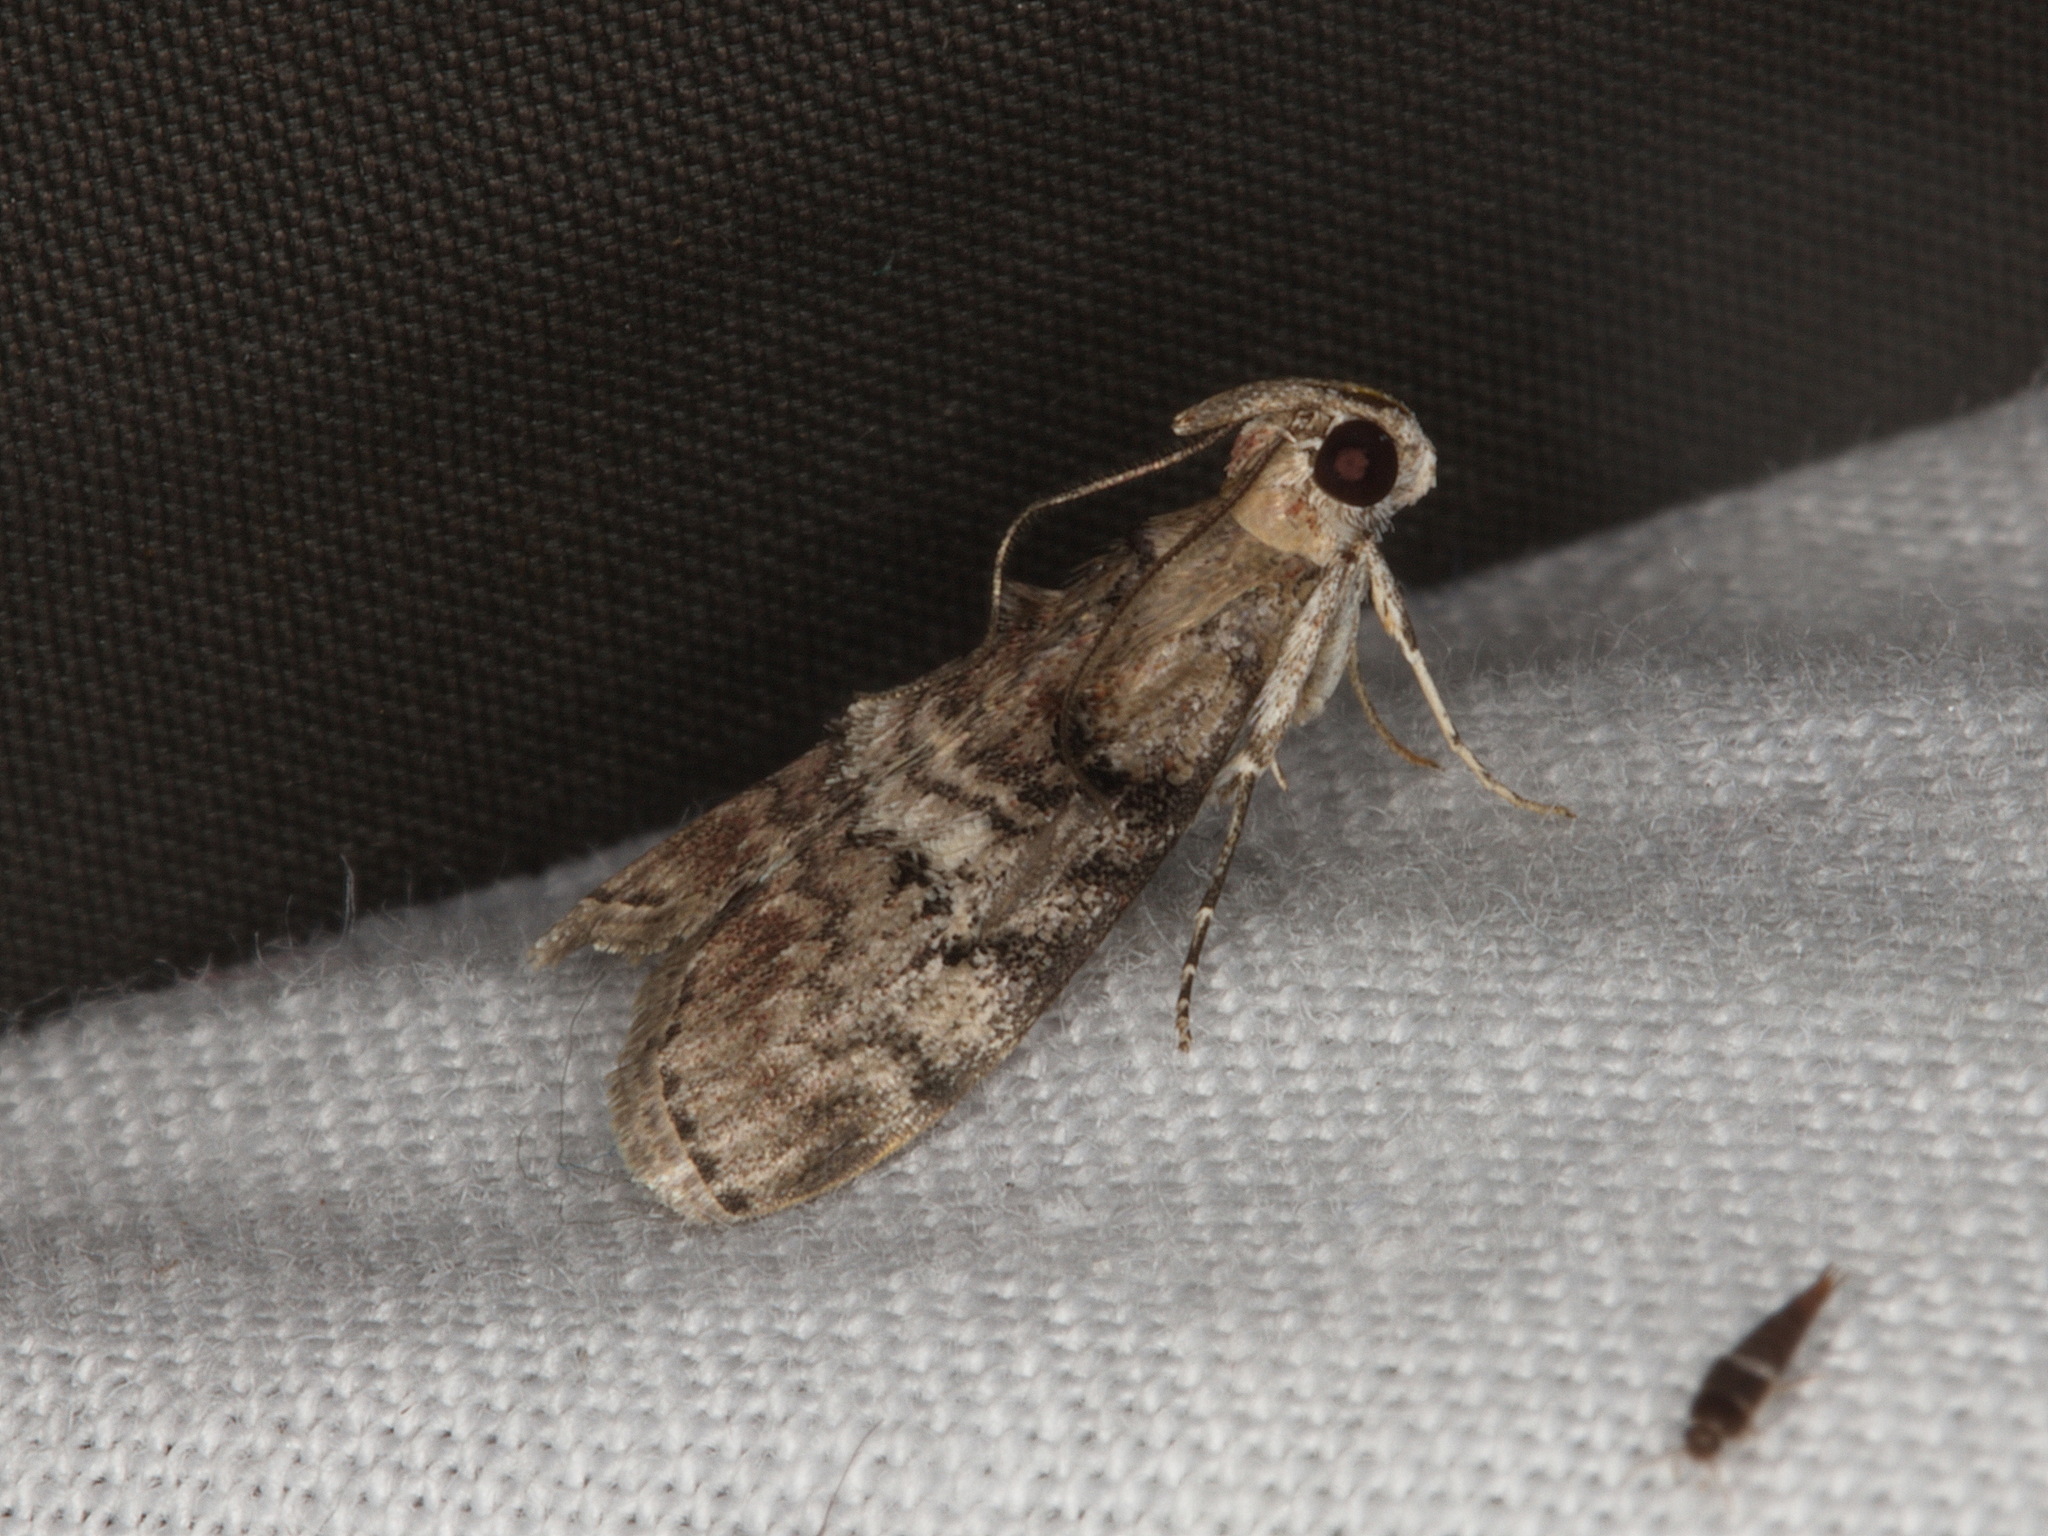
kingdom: Animalia
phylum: Arthropoda
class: Insecta
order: Lepidoptera
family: Pyralidae
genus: Pococera
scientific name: Pococera asperatella
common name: Maple webworm moth
